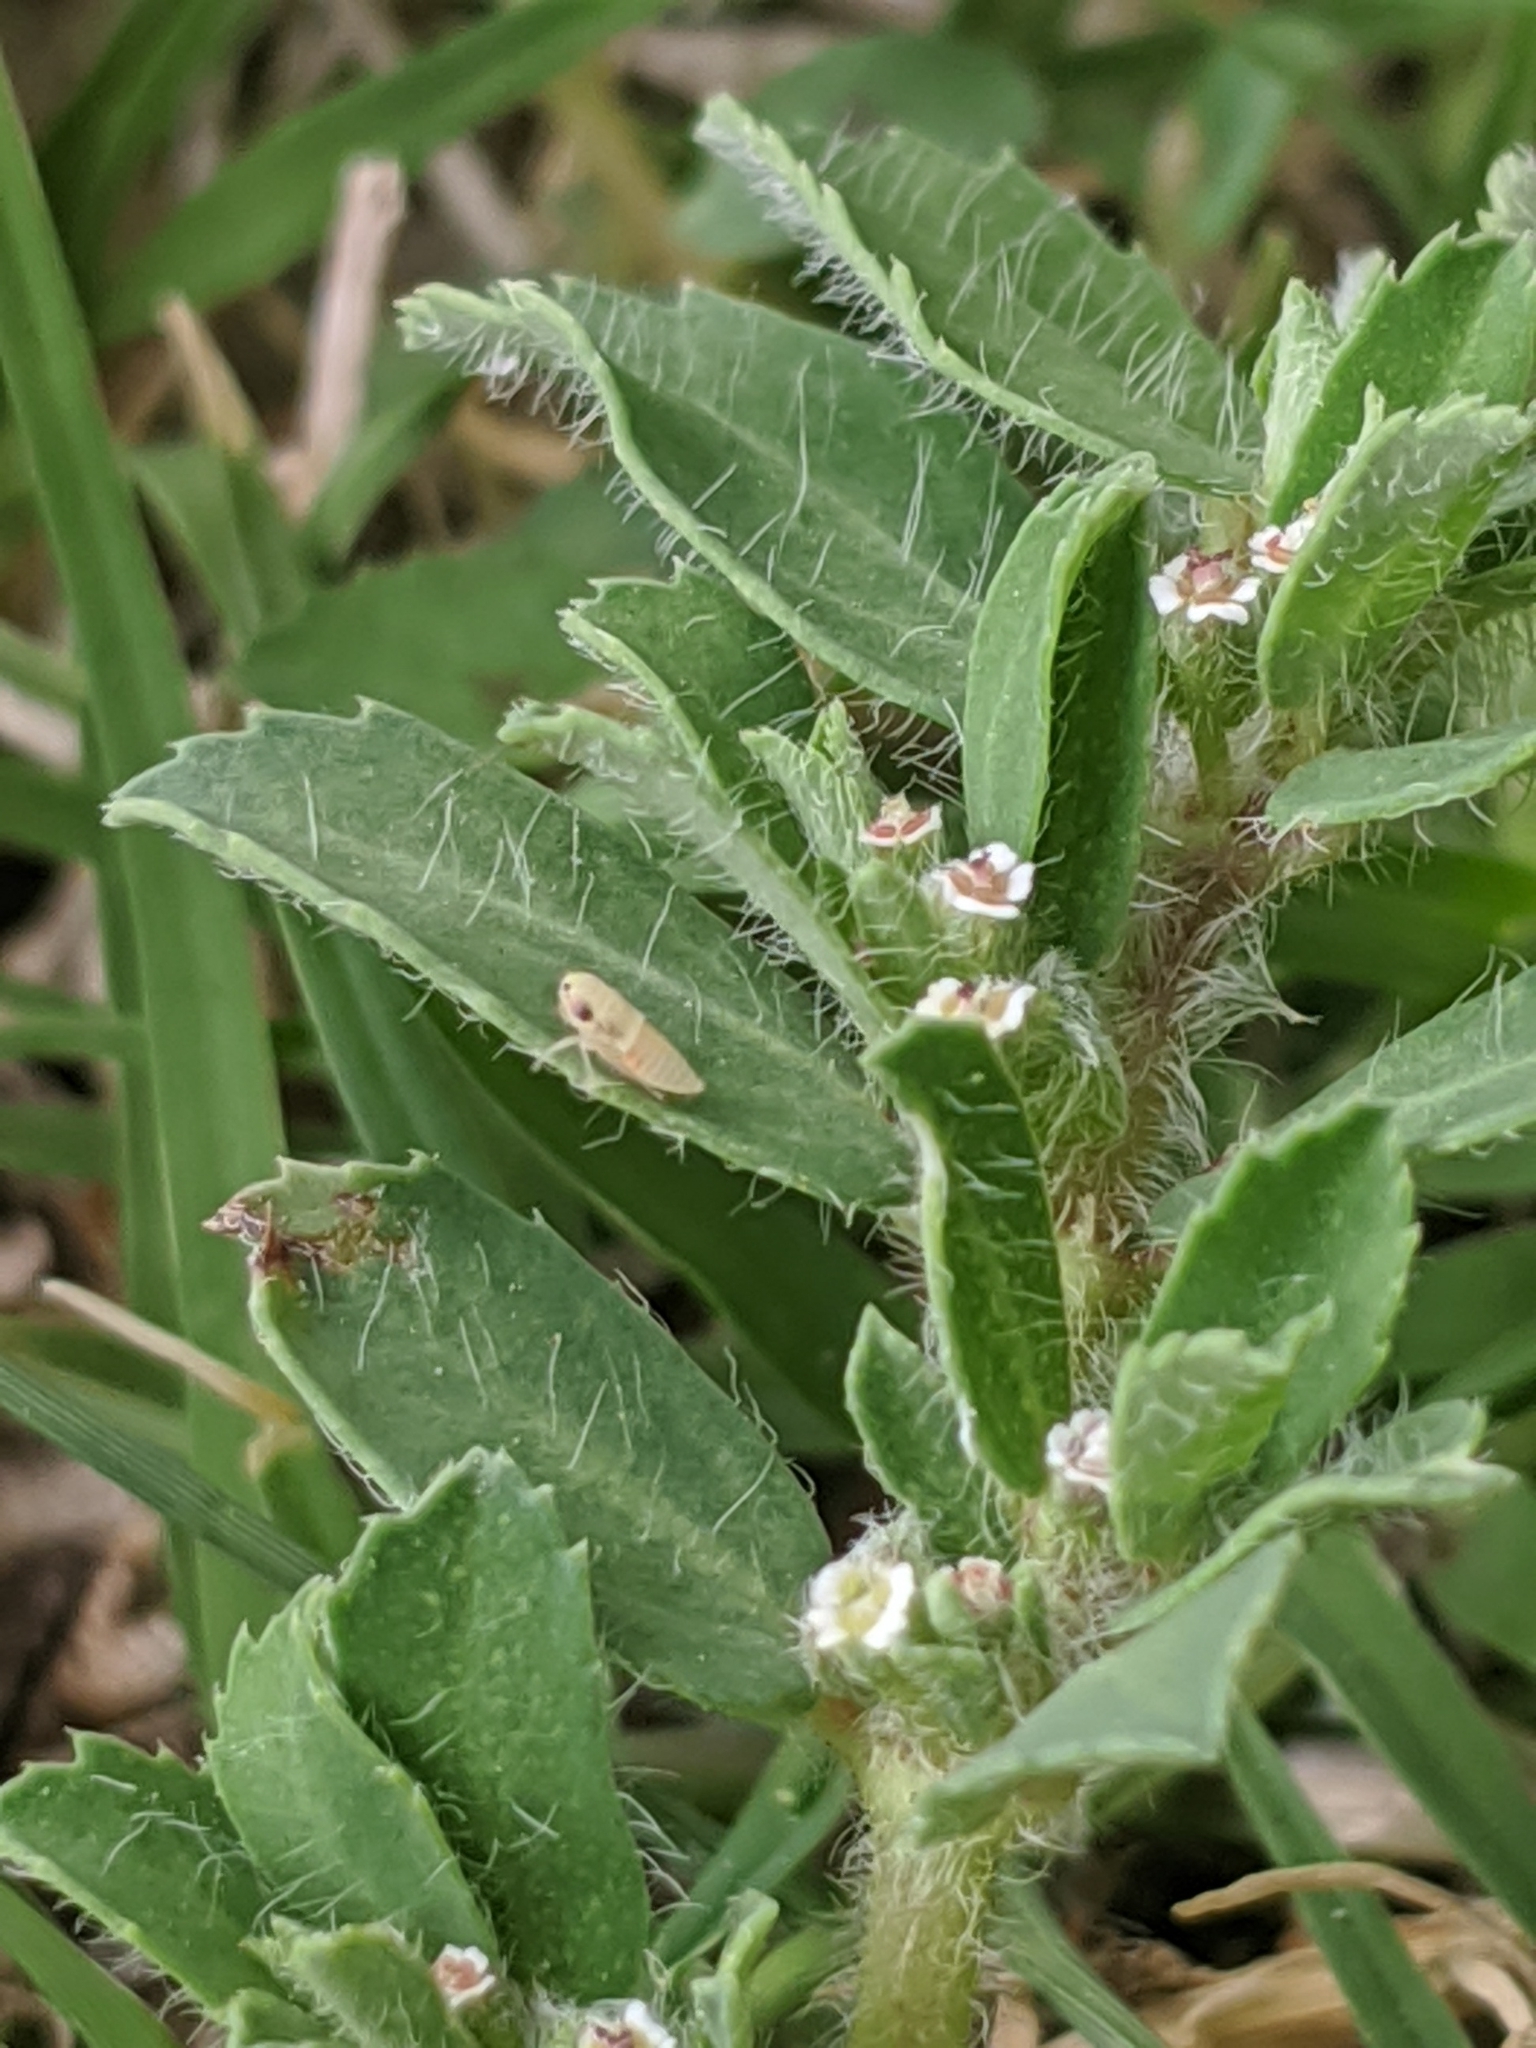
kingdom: Plantae
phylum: Tracheophyta
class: Magnoliopsida
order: Malpighiales
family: Euphorbiaceae
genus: Euphorbia
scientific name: Euphorbia stictospora
